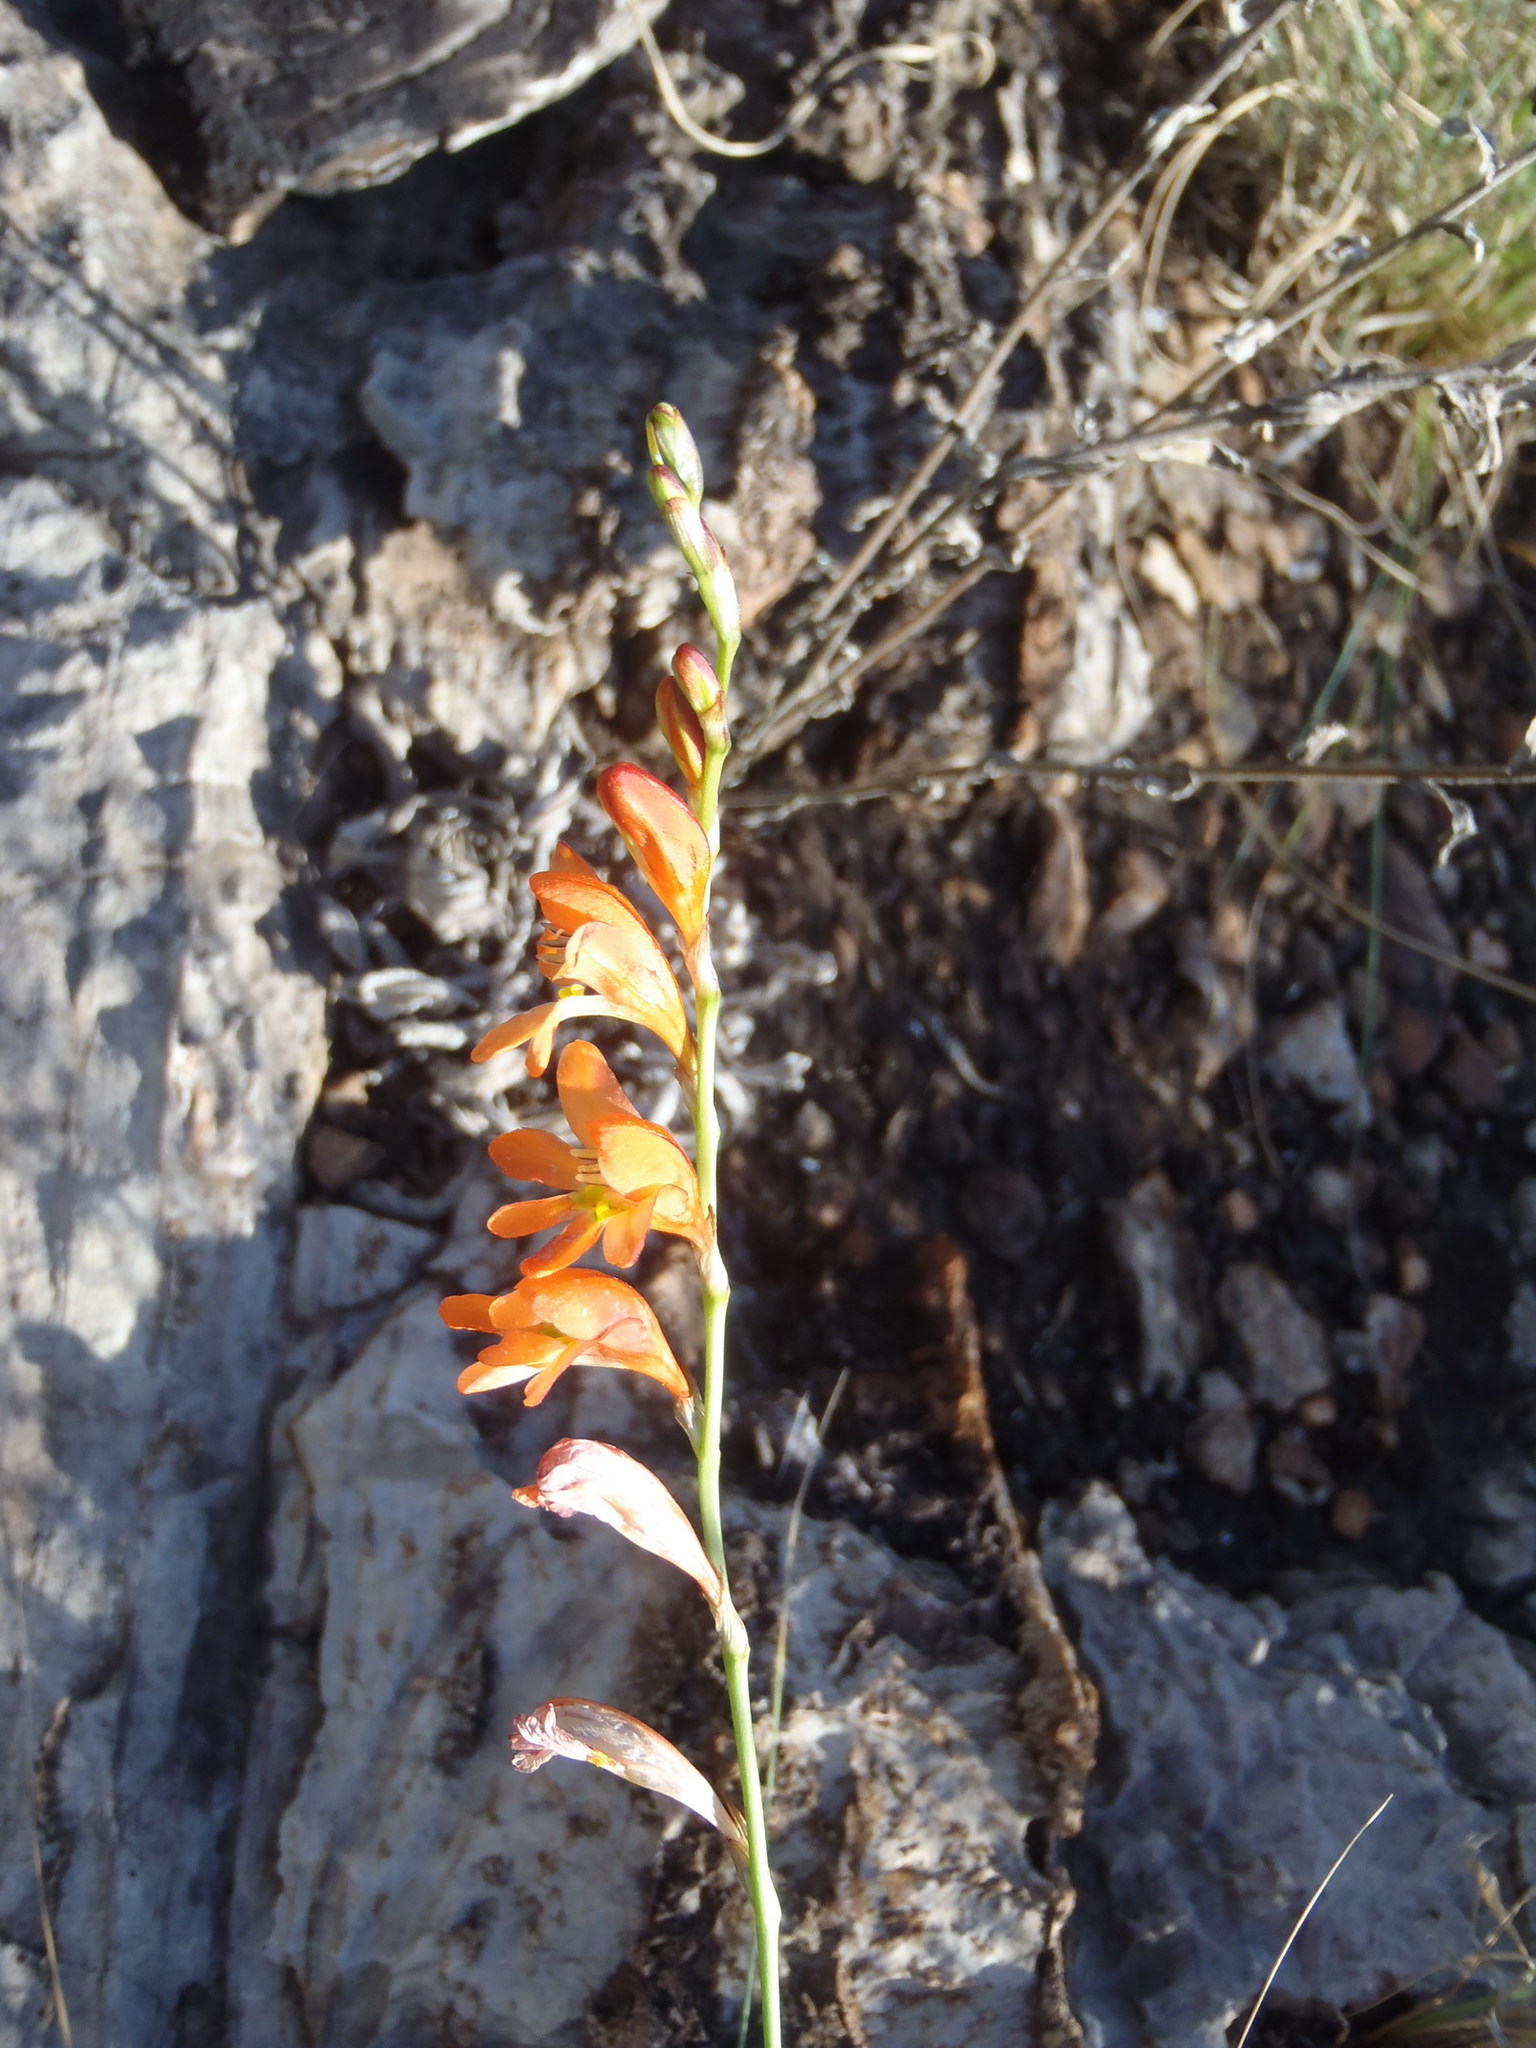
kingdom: Plantae
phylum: Tracheophyta
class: Liliopsida
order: Asparagales
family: Iridaceae
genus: Tritonia
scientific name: Tritonia nelsonii
